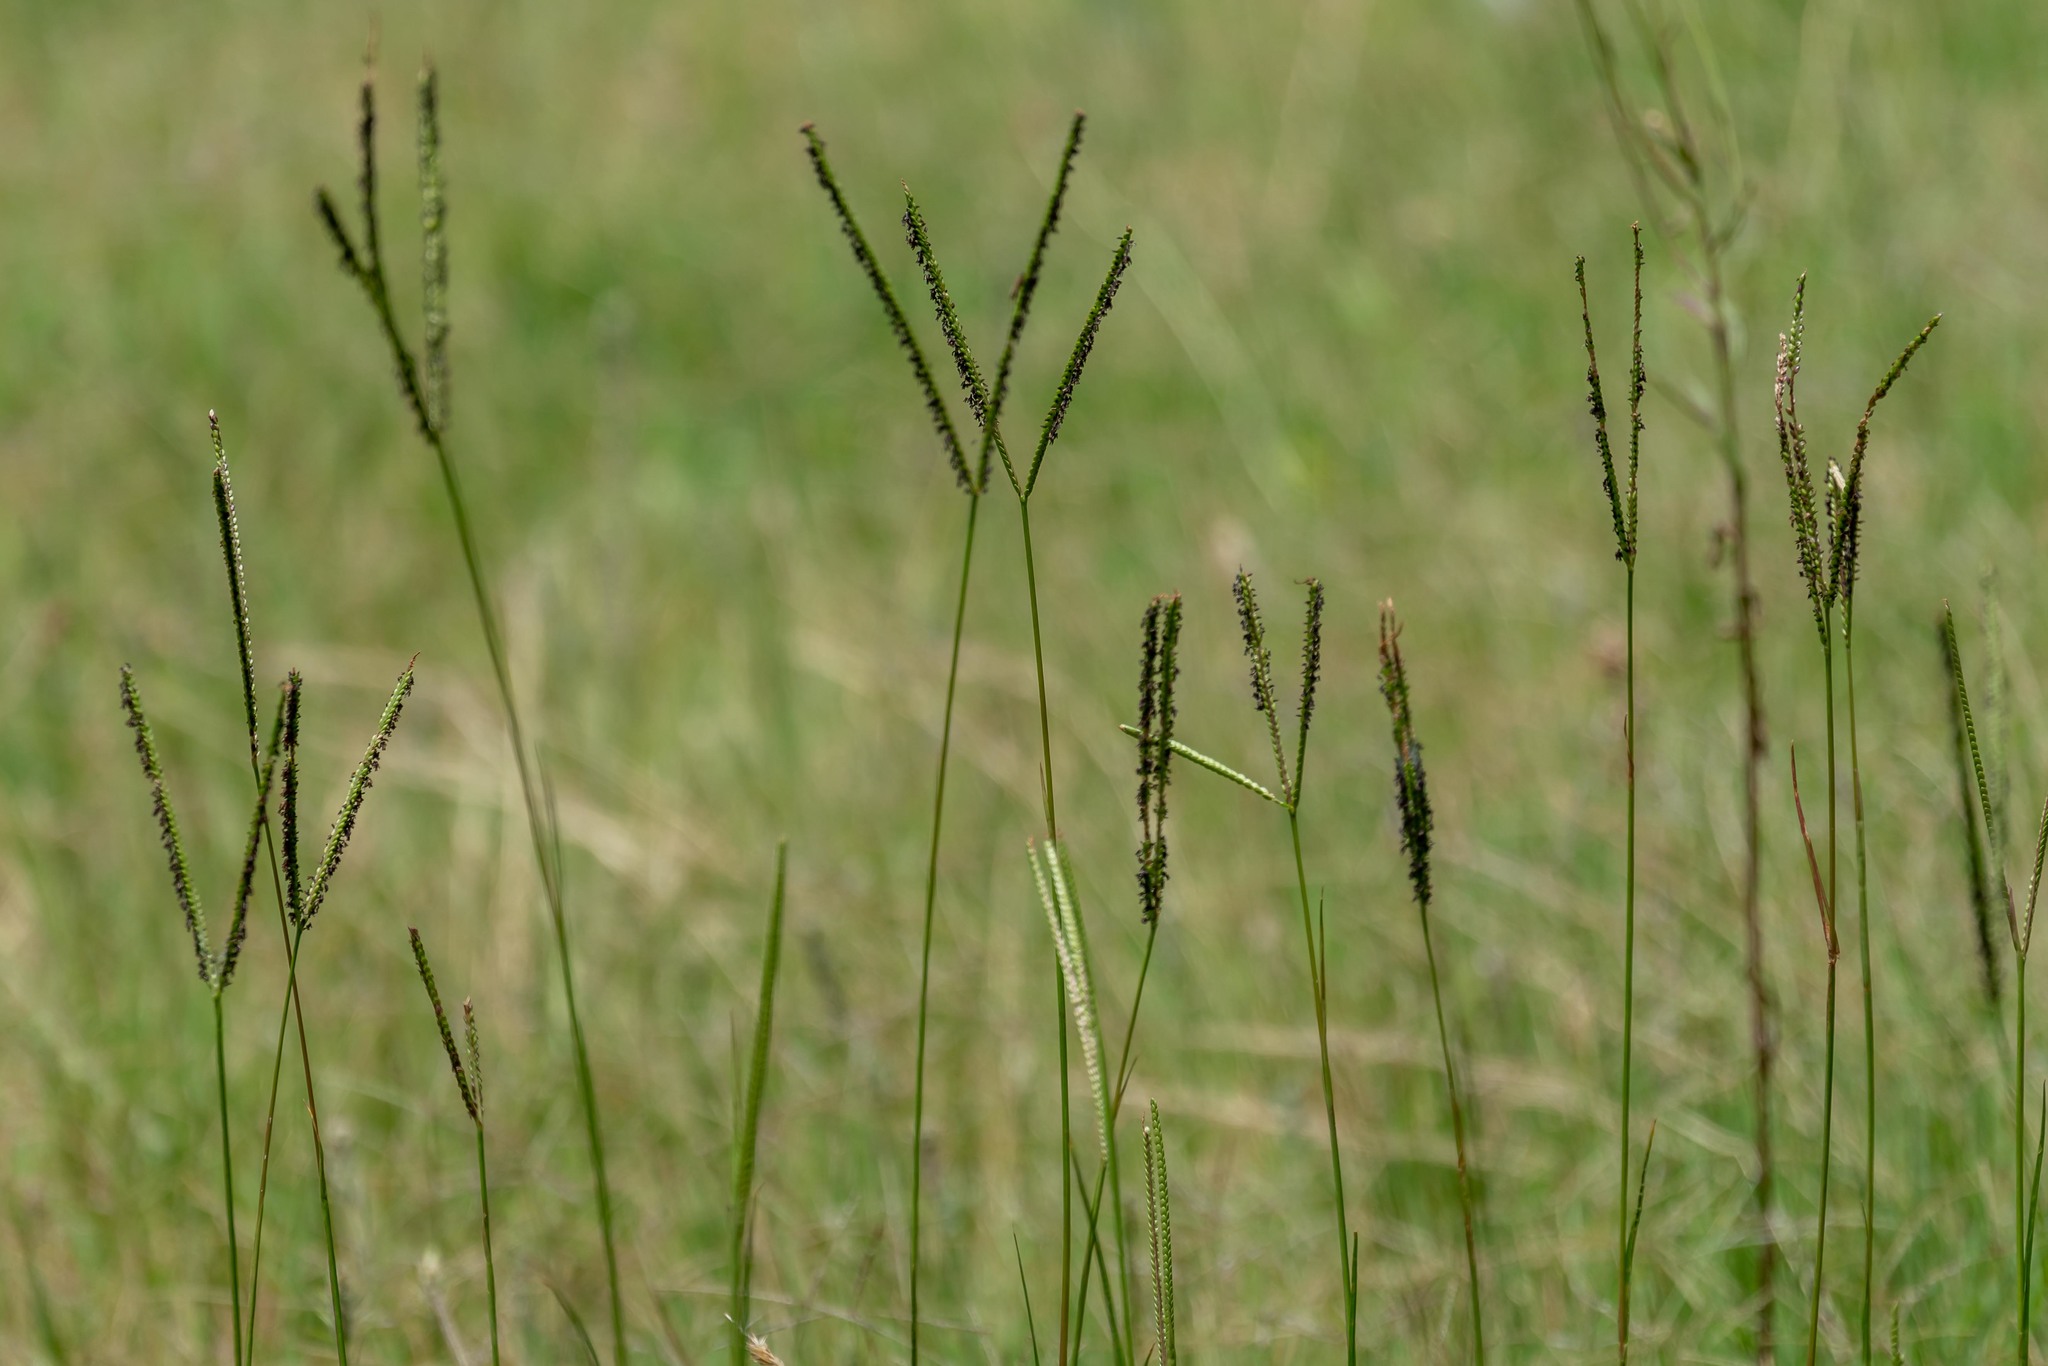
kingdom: Plantae
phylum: Tracheophyta
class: Liliopsida
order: Poales
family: Poaceae
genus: Paspalum
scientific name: Paspalum notatum
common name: Bahiagrass
